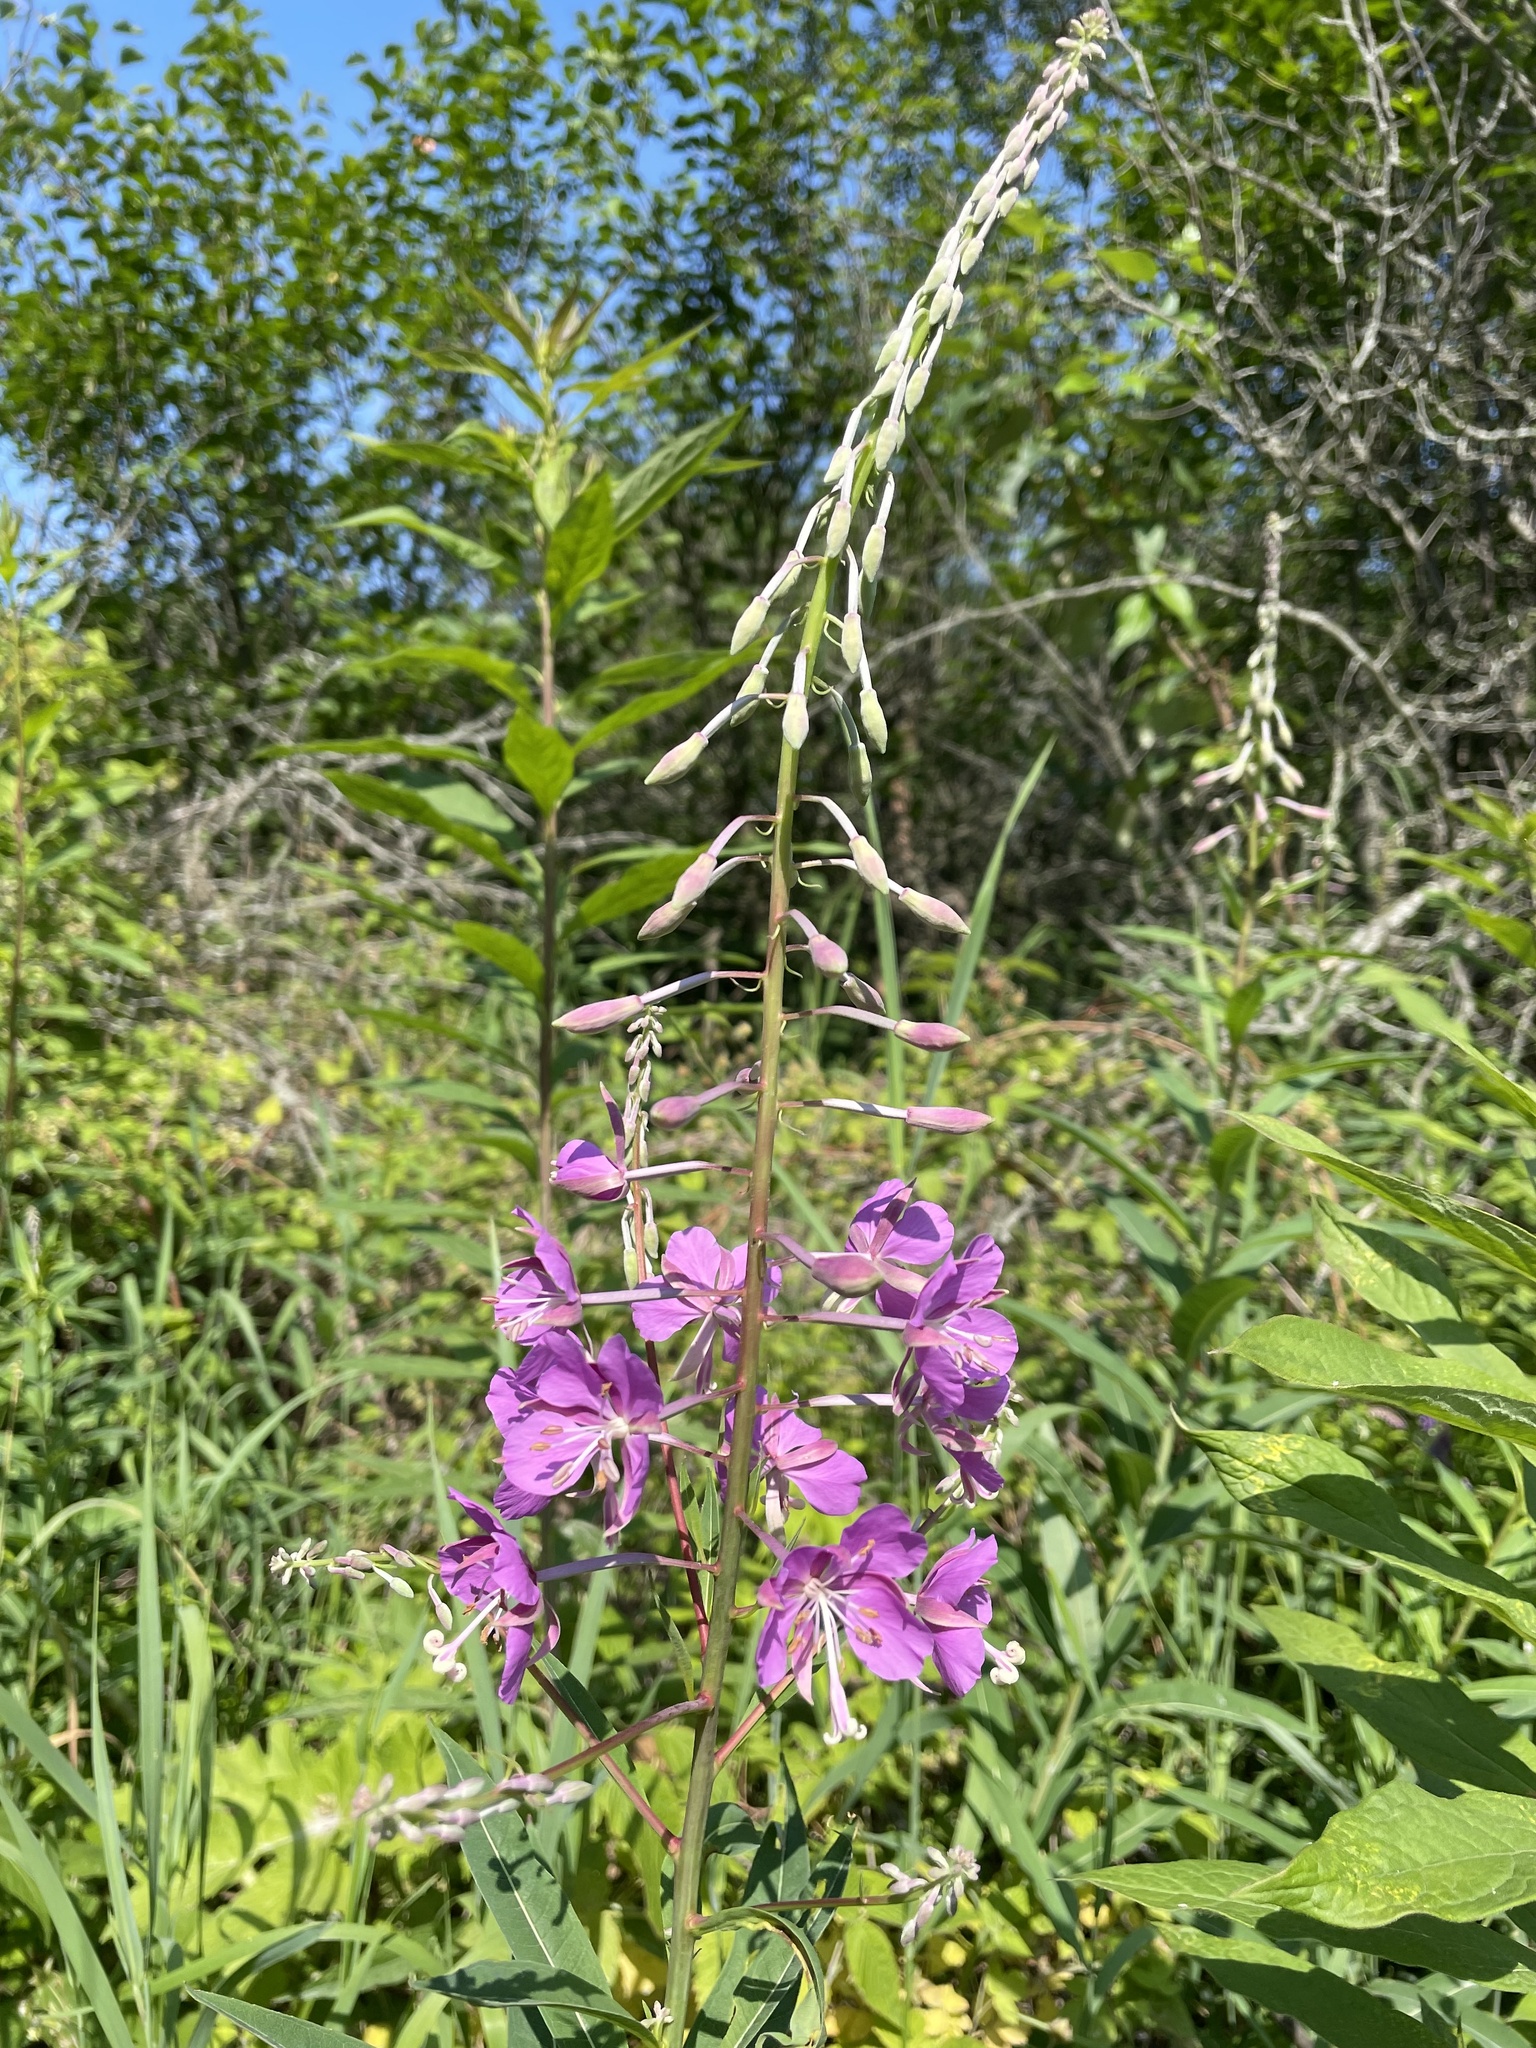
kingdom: Plantae
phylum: Tracheophyta
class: Magnoliopsida
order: Myrtales
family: Onagraceae
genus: Chamaenerion
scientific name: Chamaenerion angustifolium
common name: Fireweed
